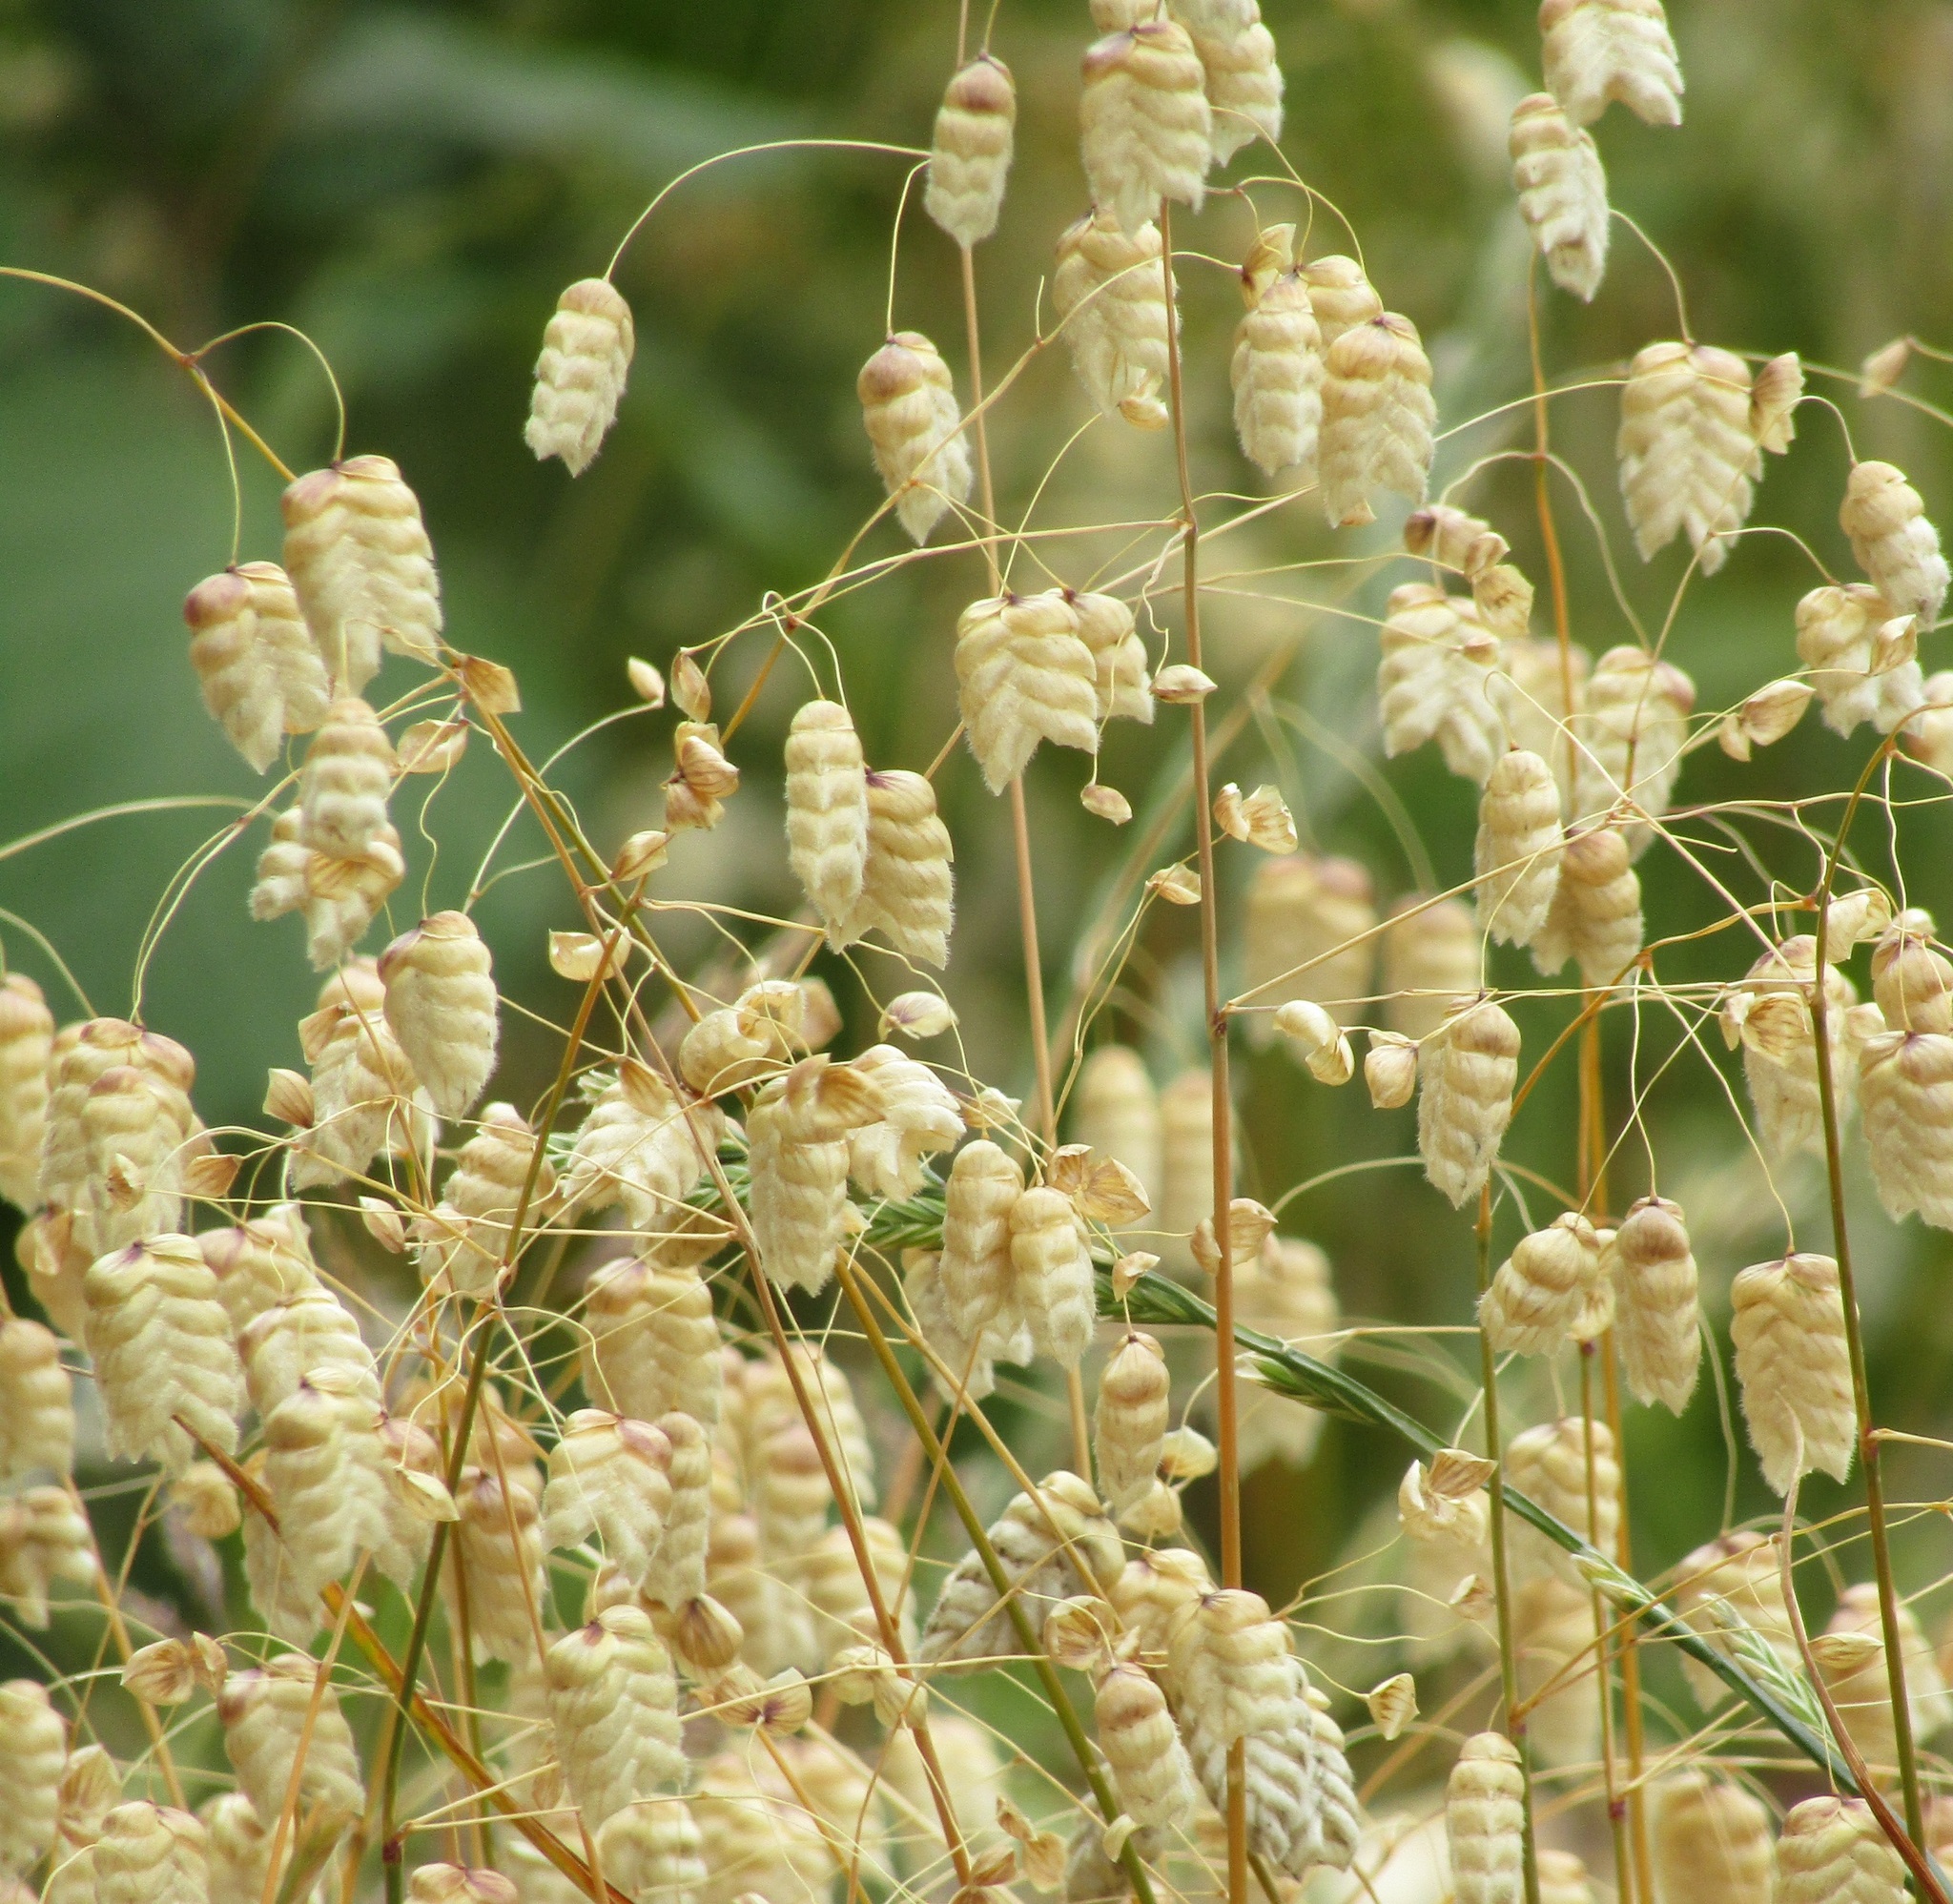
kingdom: Plantae
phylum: Tracheophyta
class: Liliopsida
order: Poales
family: Poaceae
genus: Briza
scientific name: Briza maxima
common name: Big quakinggrass
